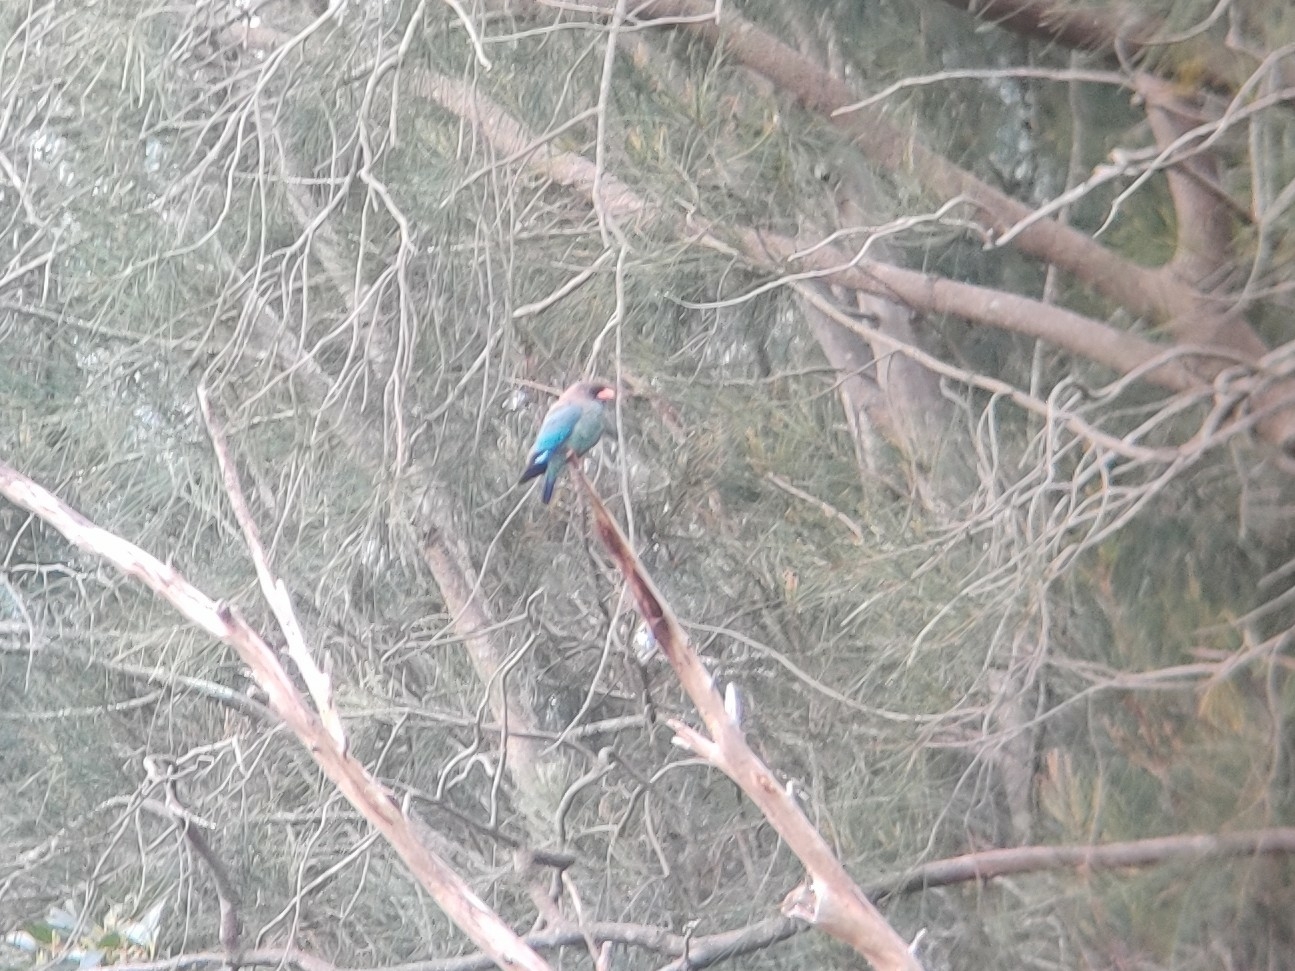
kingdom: Animalia
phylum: Chordata
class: Aves
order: Coraciiformes
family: Coraciidae
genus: Eurystomus
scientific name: Eurystomus orientalis
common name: Oriental dollarbird
